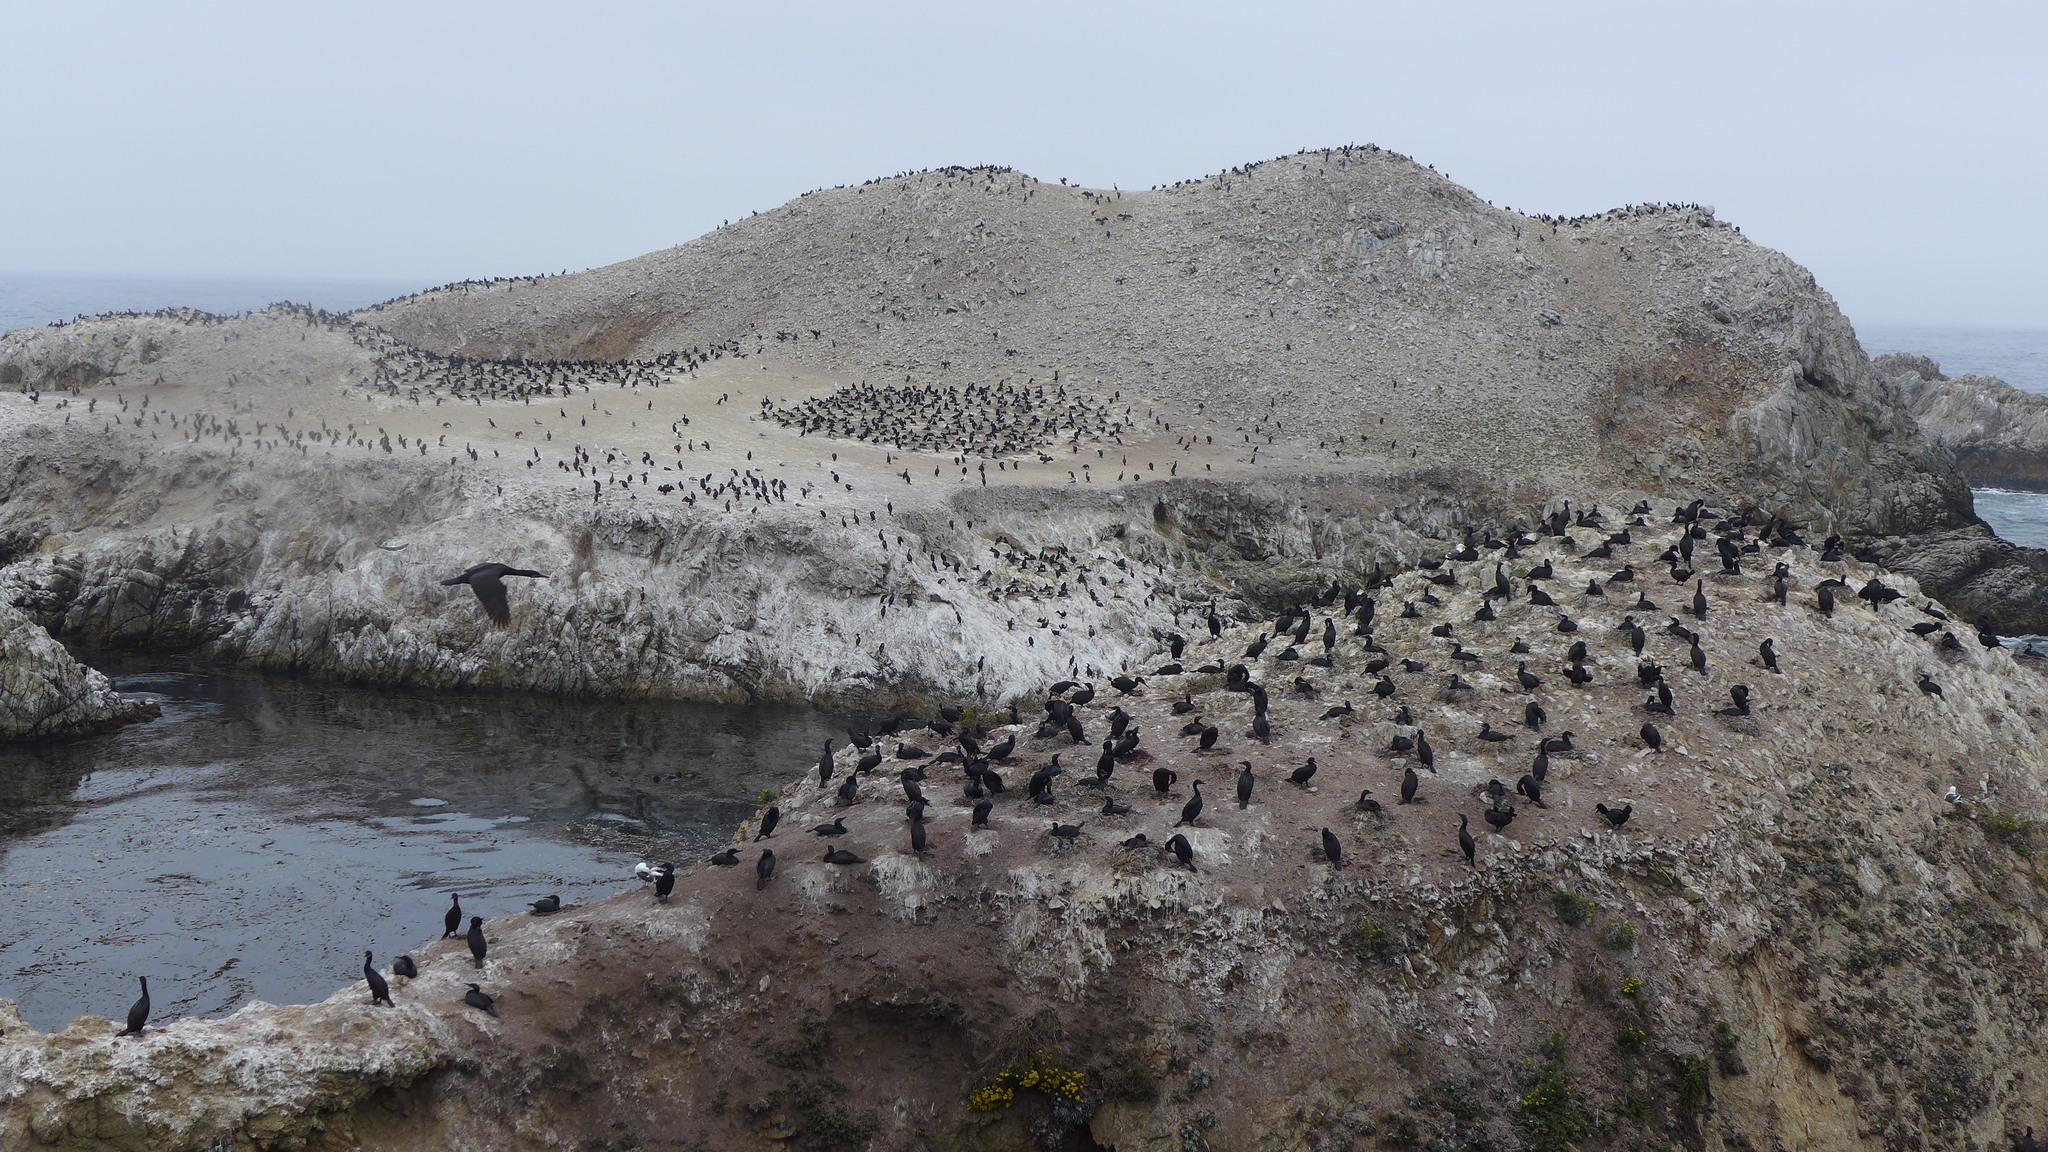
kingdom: Animalia
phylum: Chordata
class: Aves
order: Suliformes
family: Phalacrocoracidae
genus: Urile
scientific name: Urile penicillatus
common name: Brandt's cormorant
